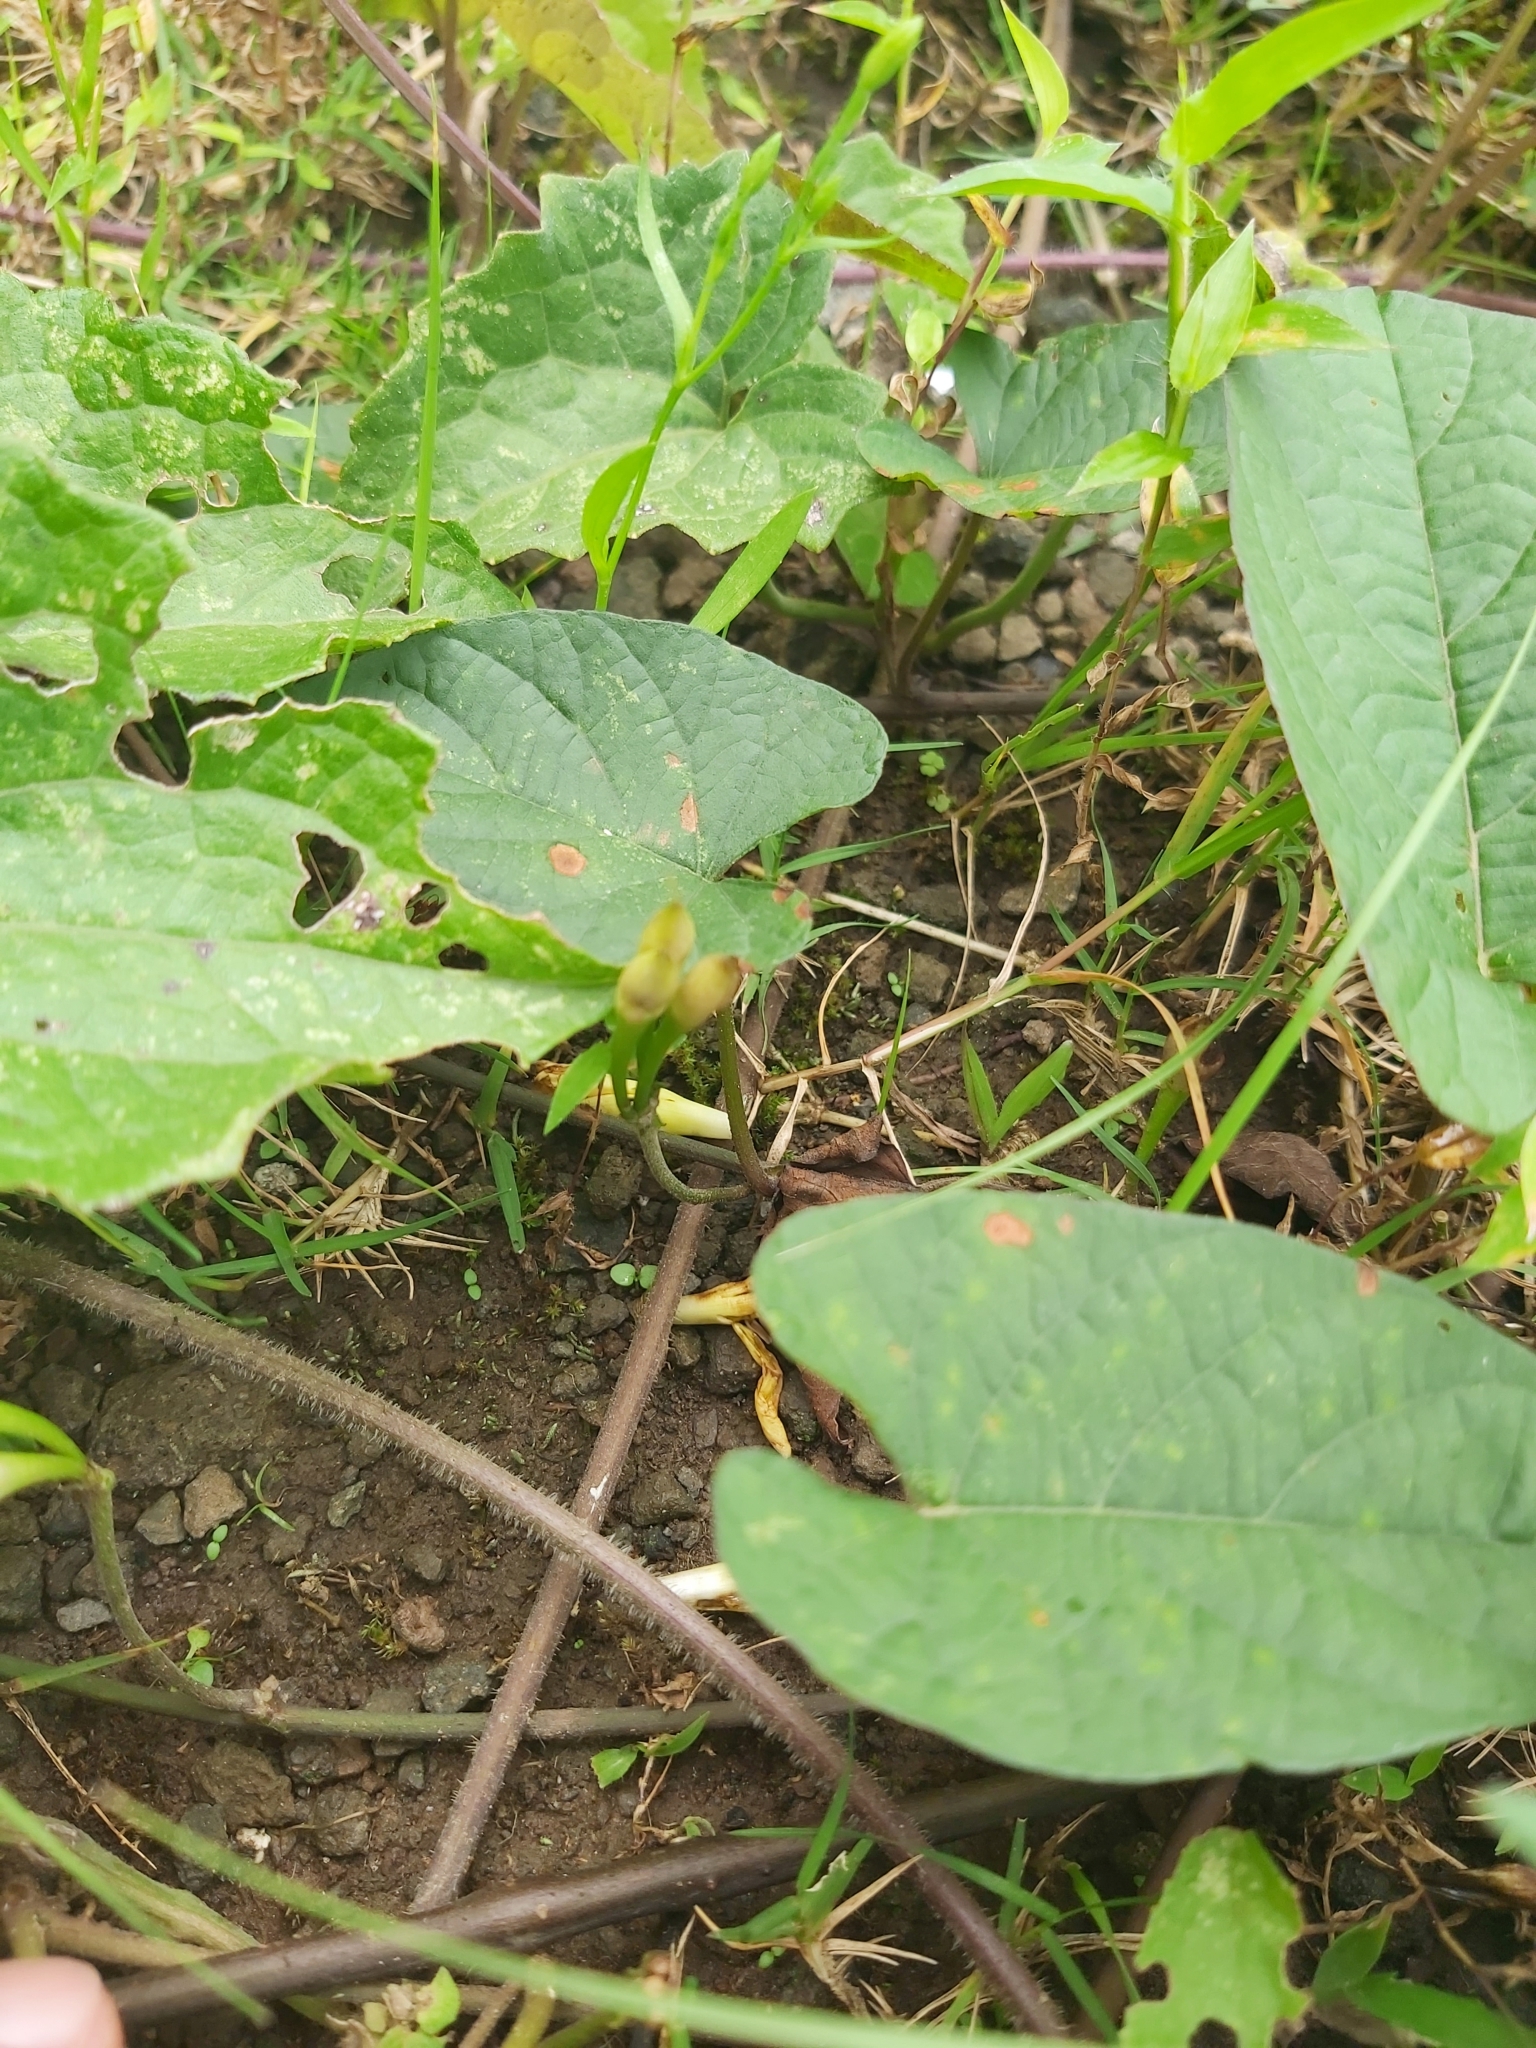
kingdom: Plantae
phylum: Tracheophyta
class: Magnoliopsida
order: Solanales
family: Convolvulaceae
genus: Camonea
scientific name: Camonea umbellata
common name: Hogvine
